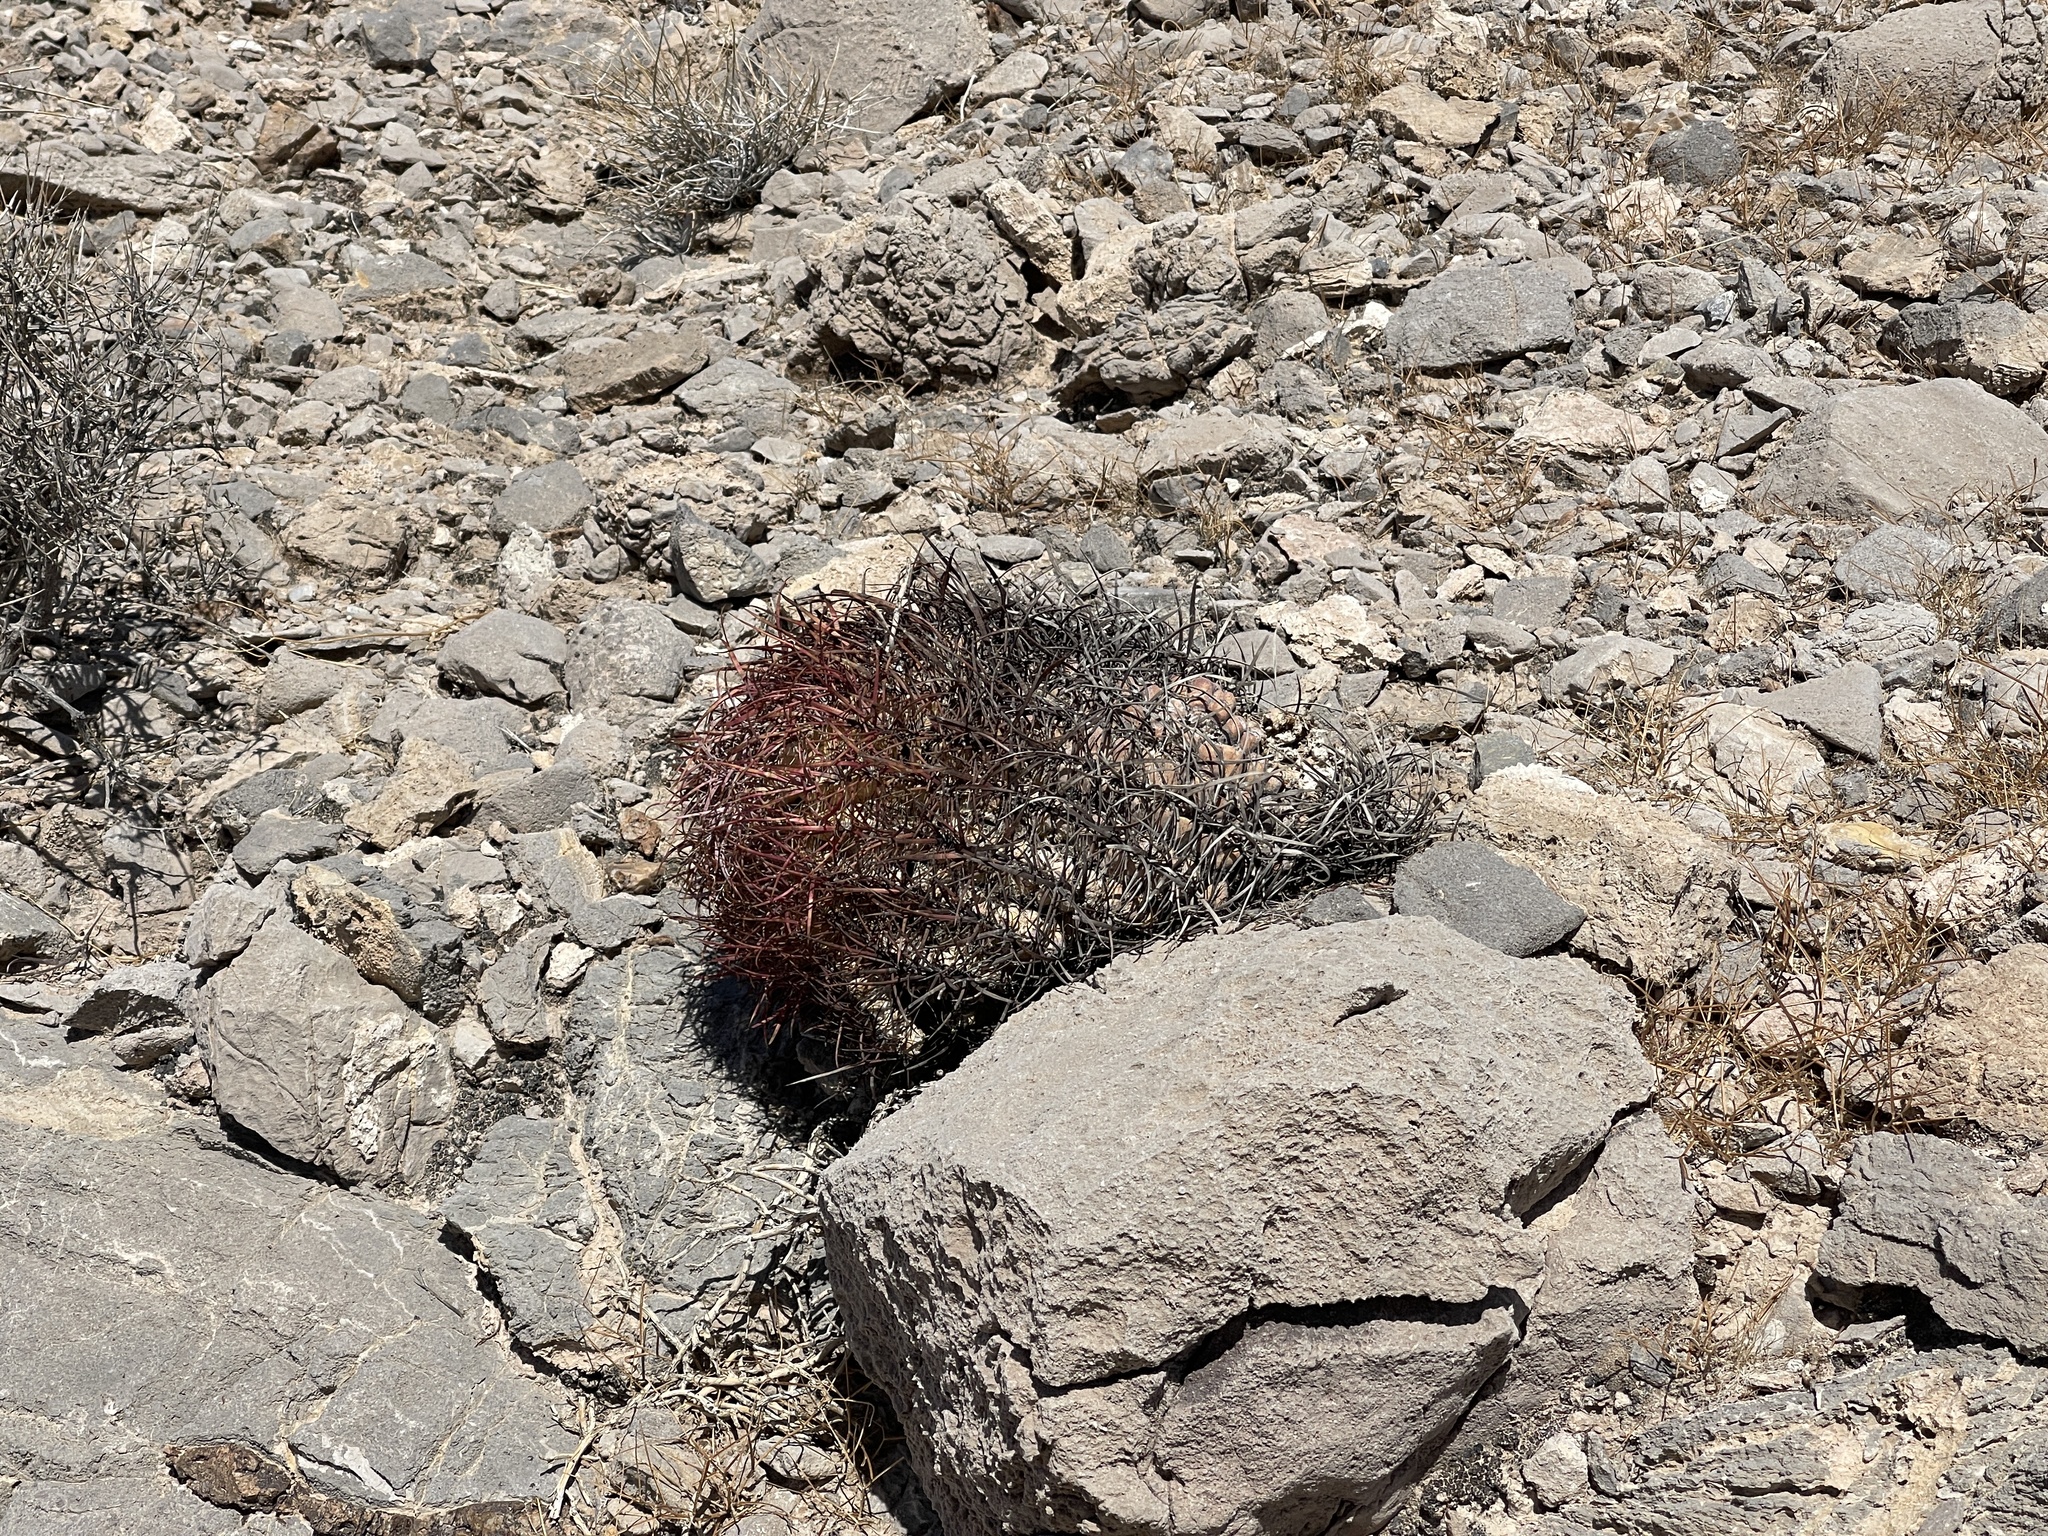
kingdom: Plantae
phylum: Tracheophyta
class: Magnoliopsida
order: Caryophyllales
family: Cactaceae
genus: Ferocactus
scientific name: Ferocactus cylindraceus
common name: California barrel cactus
